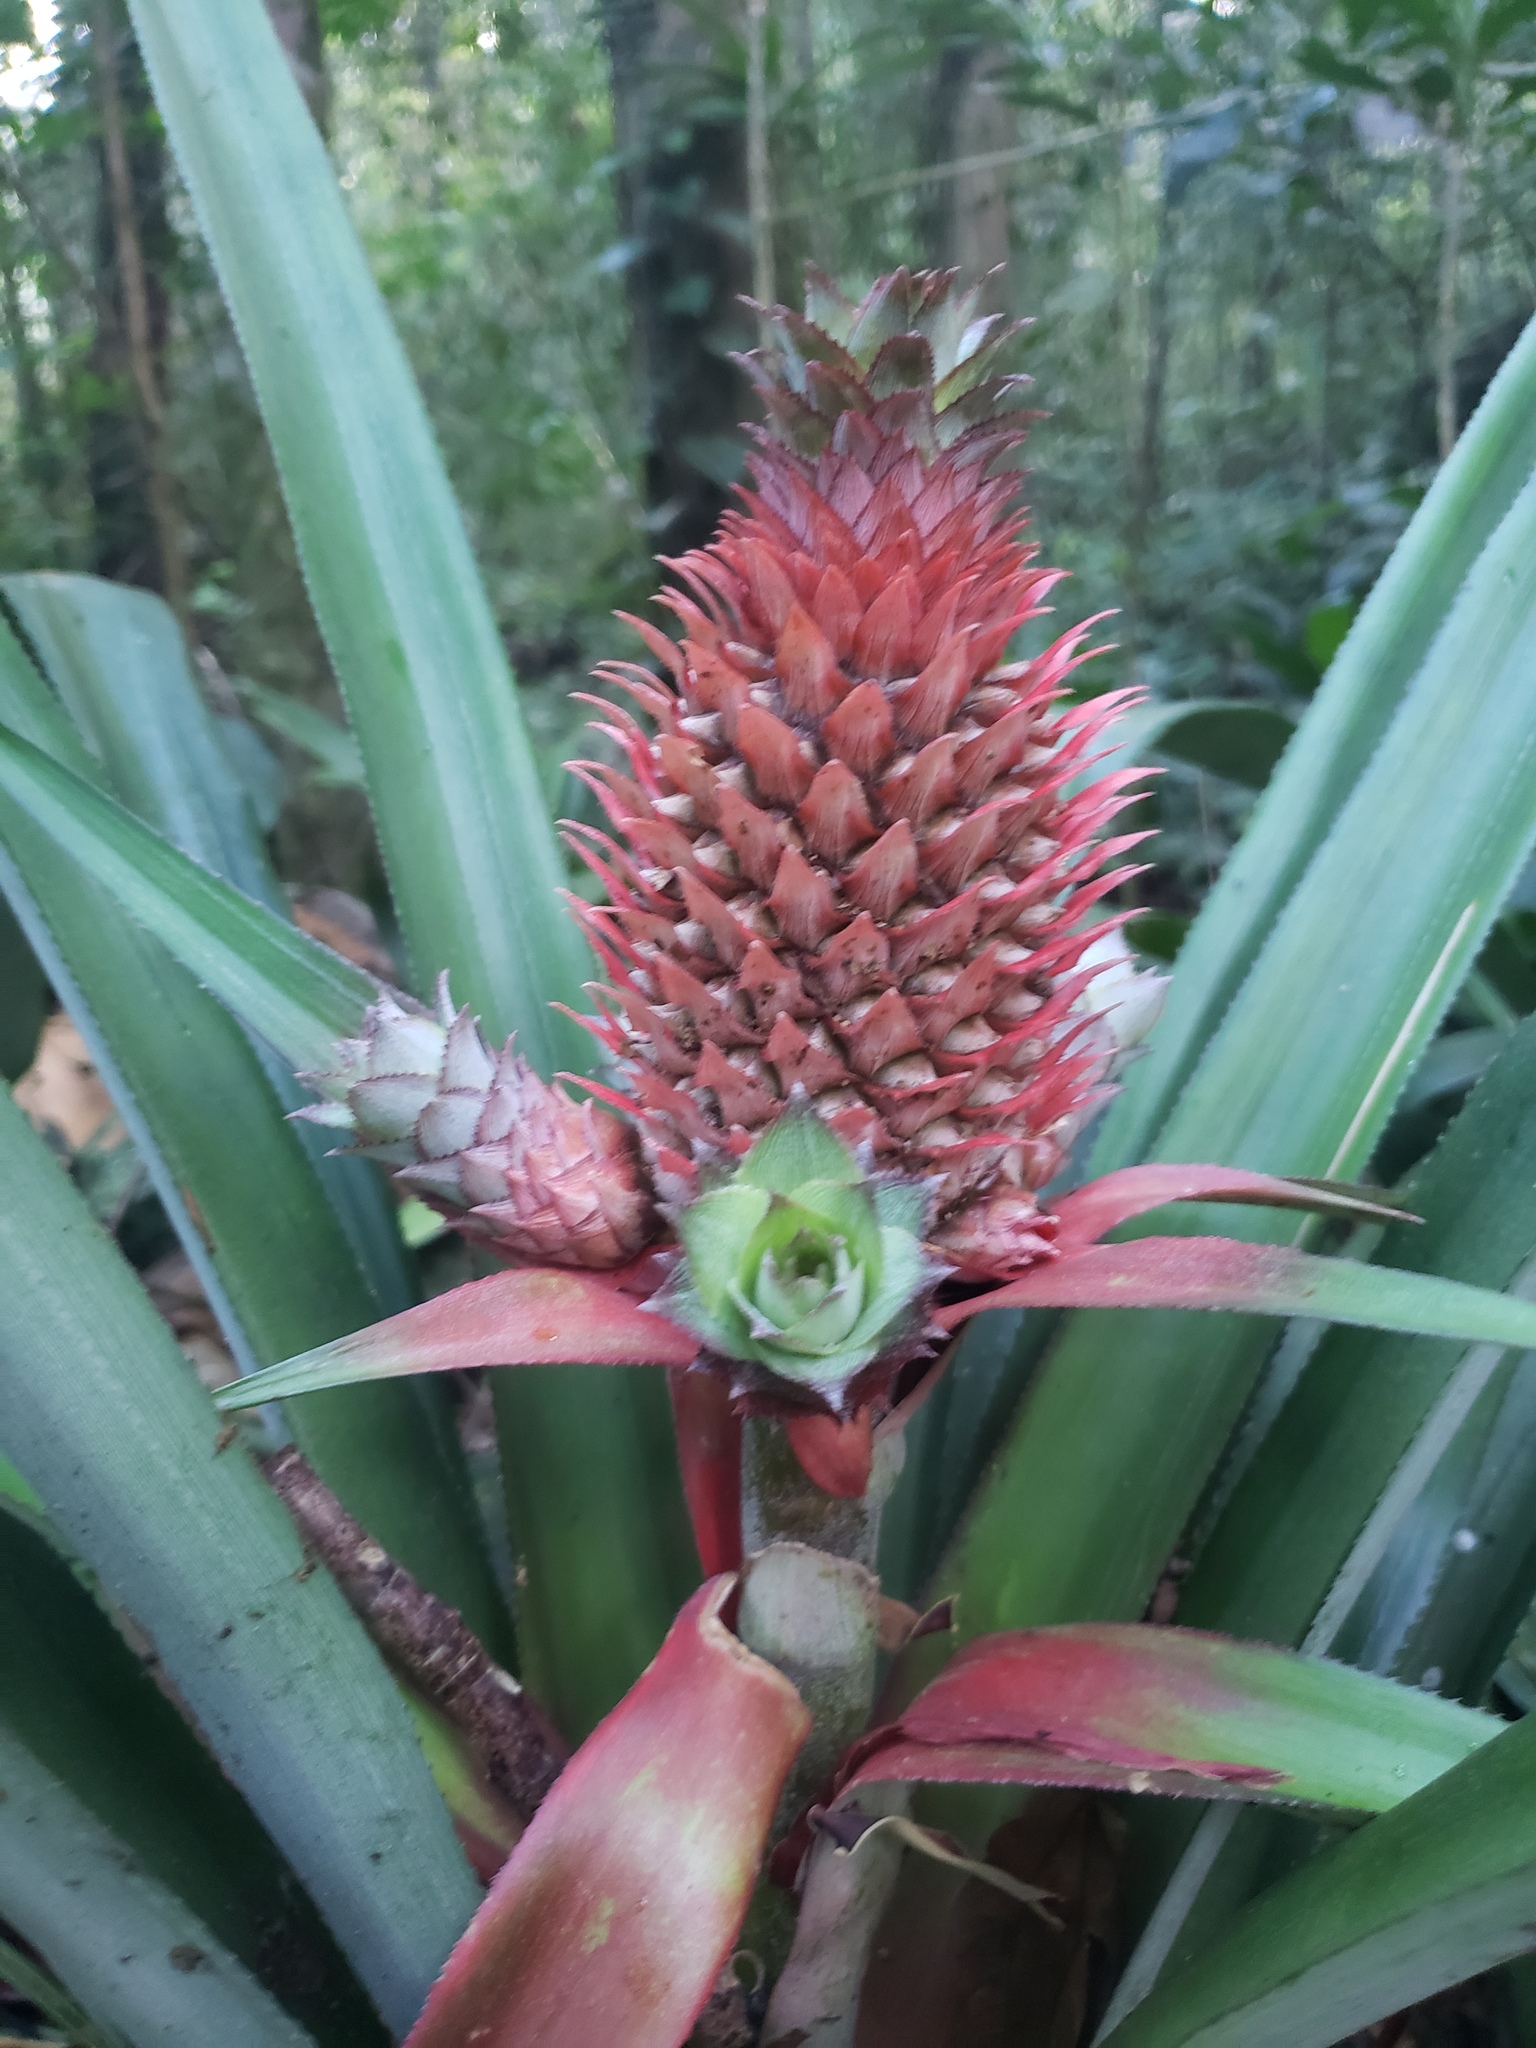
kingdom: Plantae
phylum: Tracheophyta
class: Liliopsida
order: Poales
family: Bromeliaceae
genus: Ananas
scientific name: Ananas comosus
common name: Pineapple
